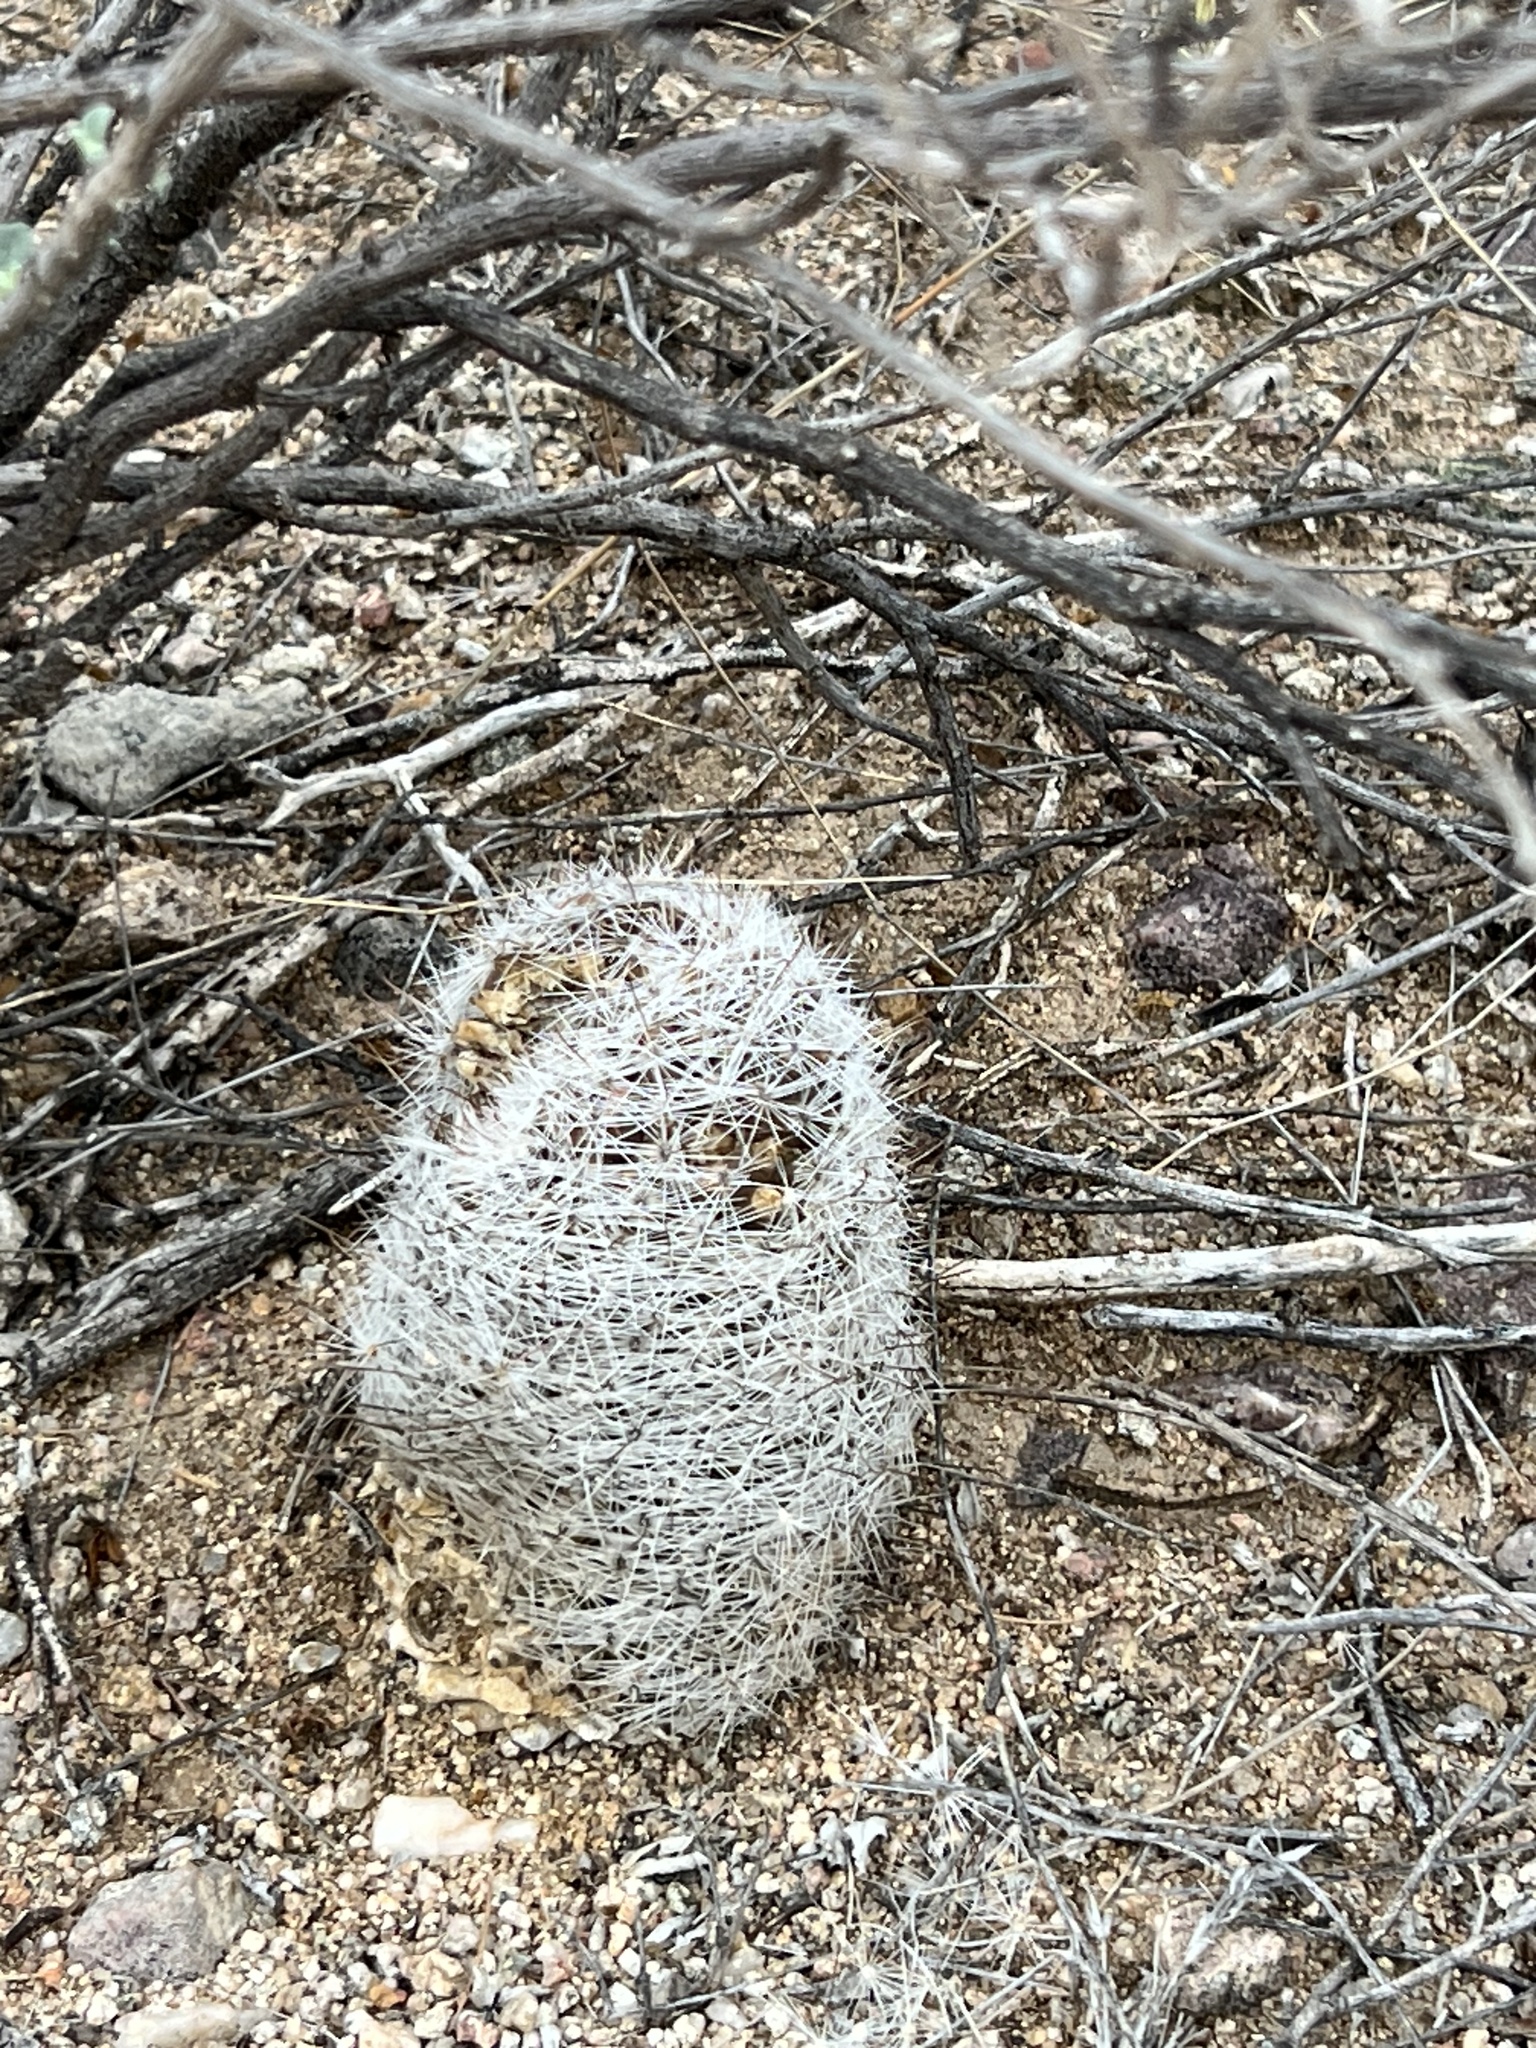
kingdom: Plantae
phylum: Tracheophyta
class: Magnoliopsida
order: Caryophyllales
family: Cactaceae
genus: Cochemiea
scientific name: Cochemiea grahamii
